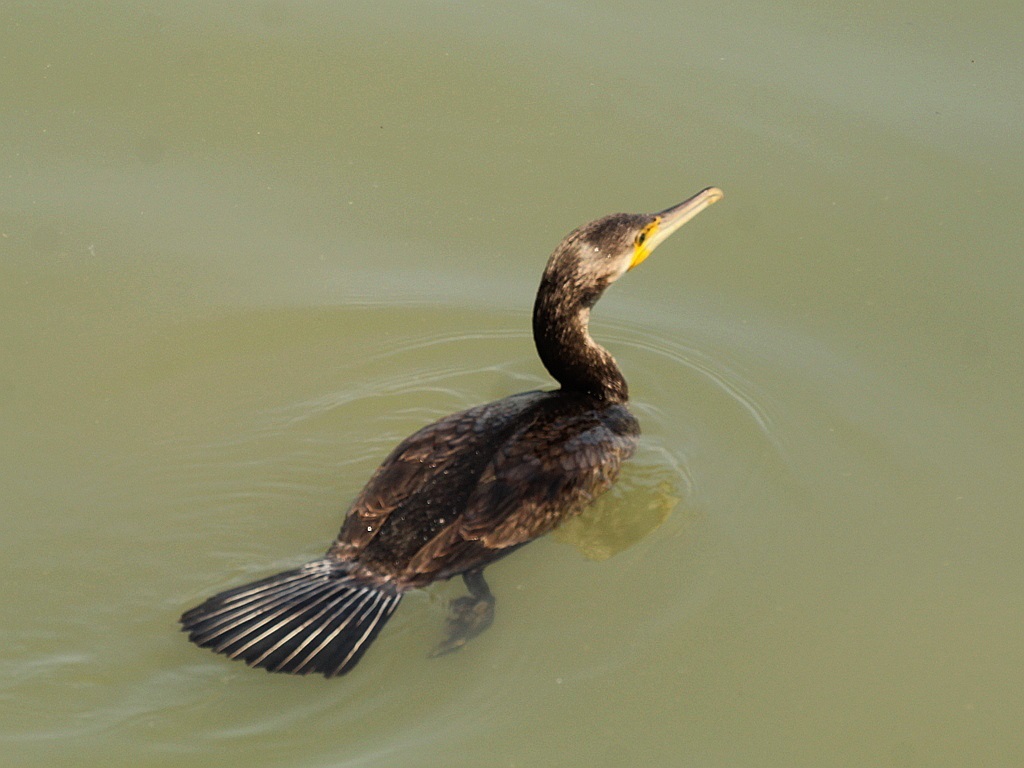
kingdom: Animalia
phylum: Chordata
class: Aves
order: Suliformes
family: Phalacrocoracidae
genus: Phalacrocorax
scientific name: Phalacrocorax carbo
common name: Great cormorant
